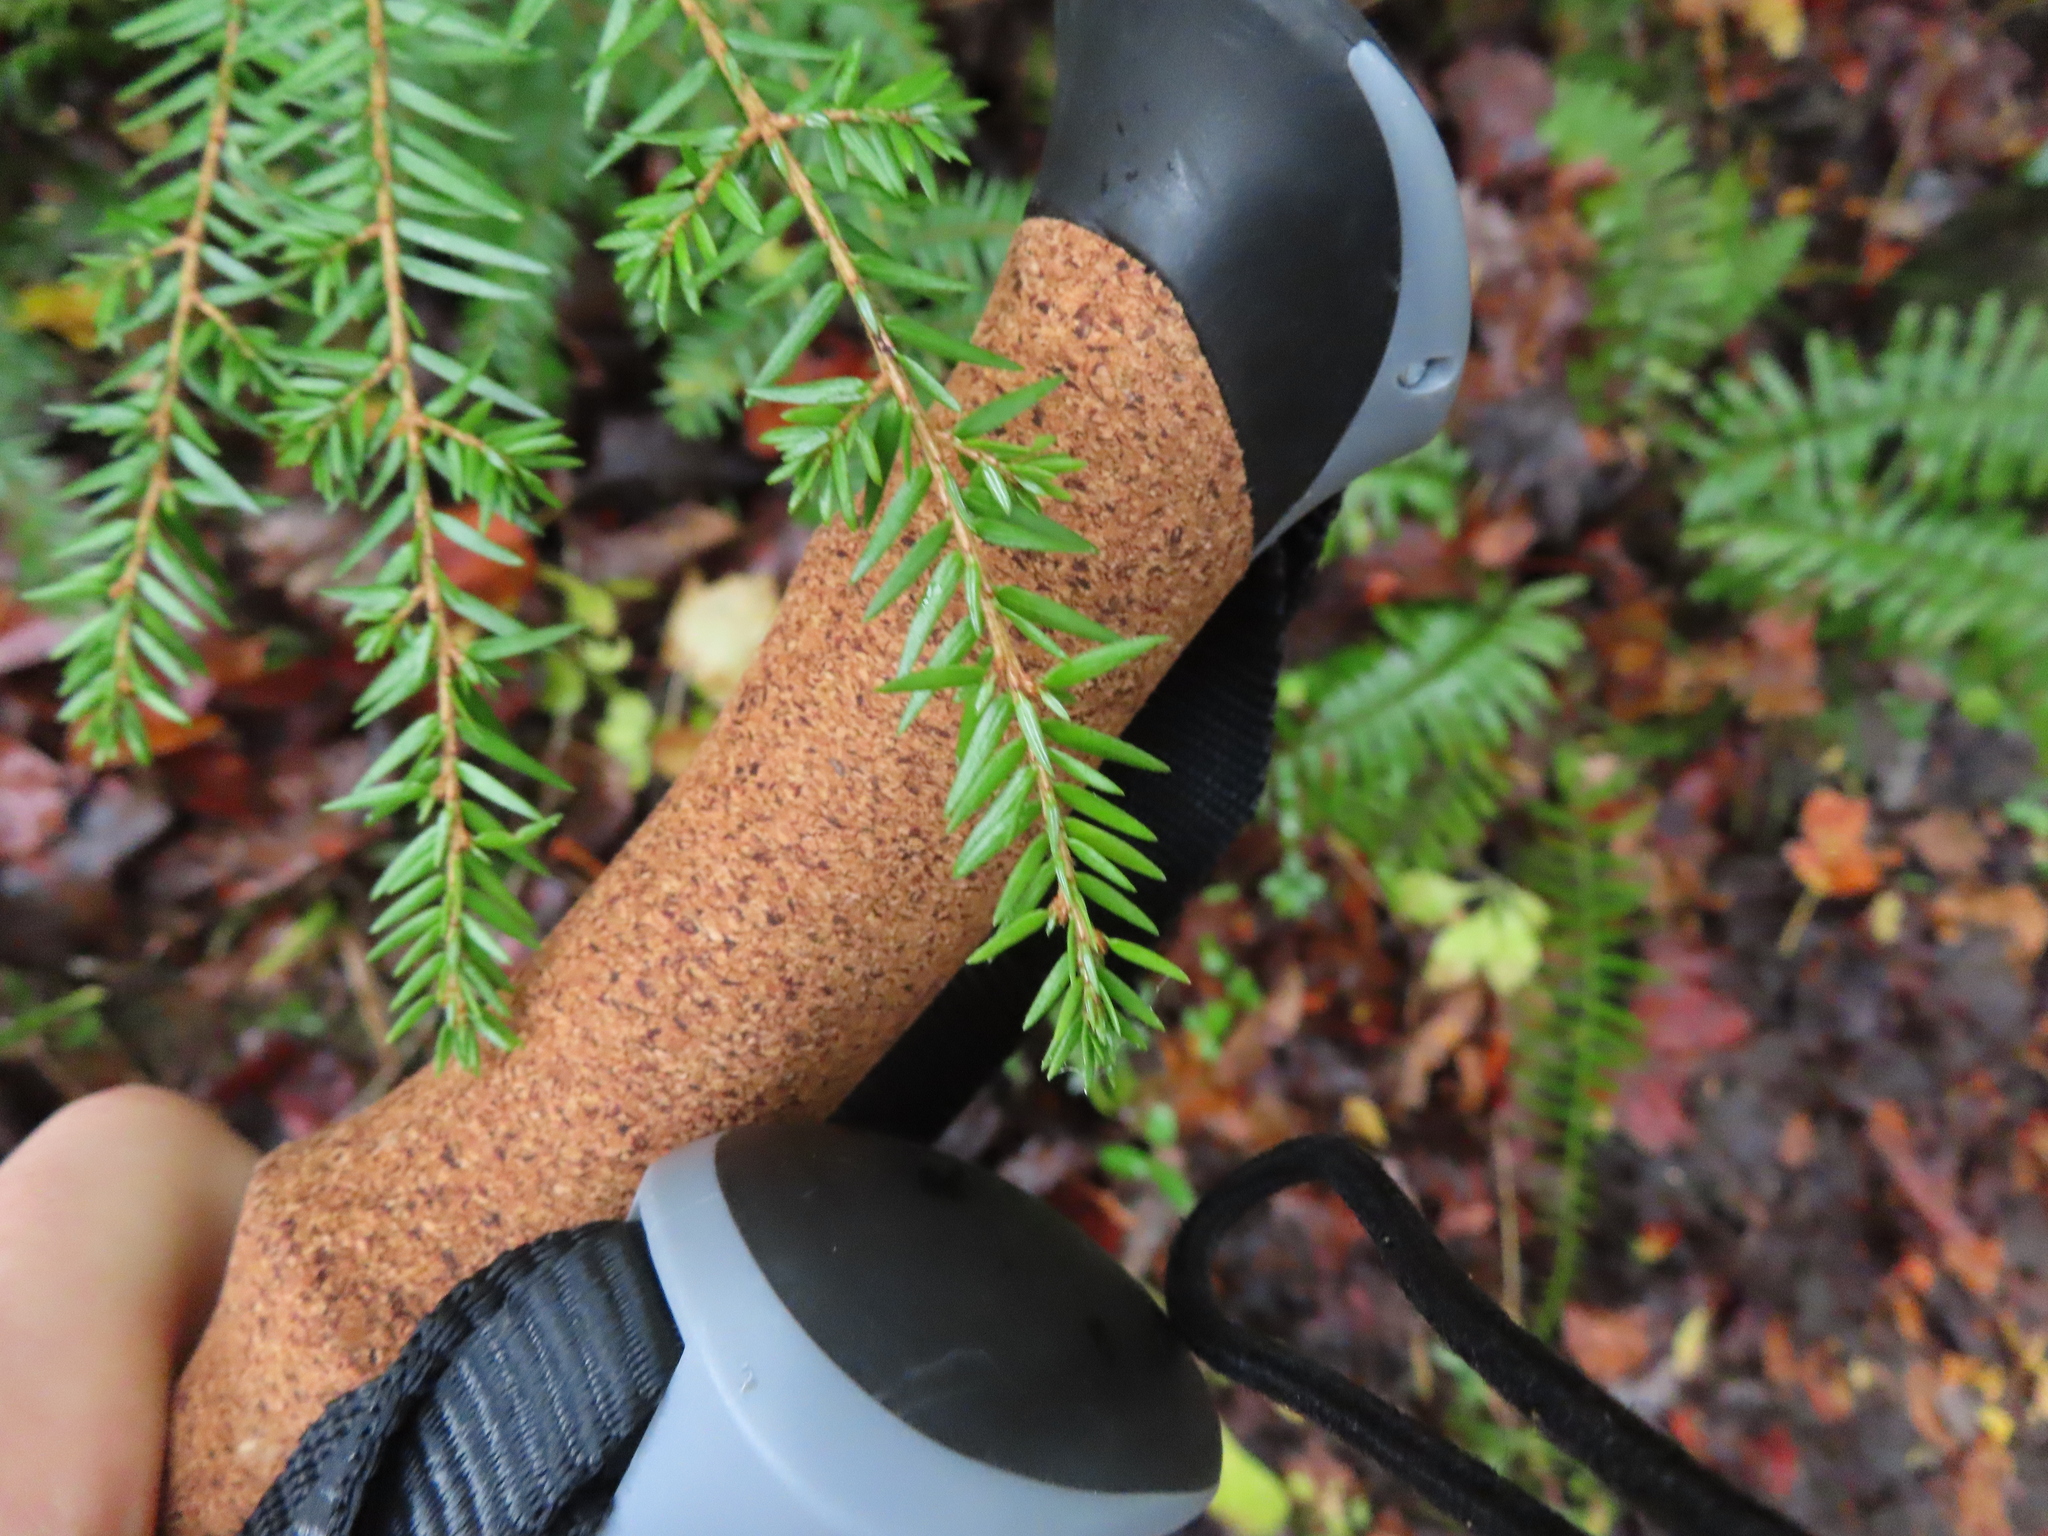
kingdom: Plantae
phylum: Tracheophyta
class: Pinopsida
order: Pinales
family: Pinaceae
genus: Tsuga
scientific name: Tsuga canadensis
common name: Eastern hemlock
